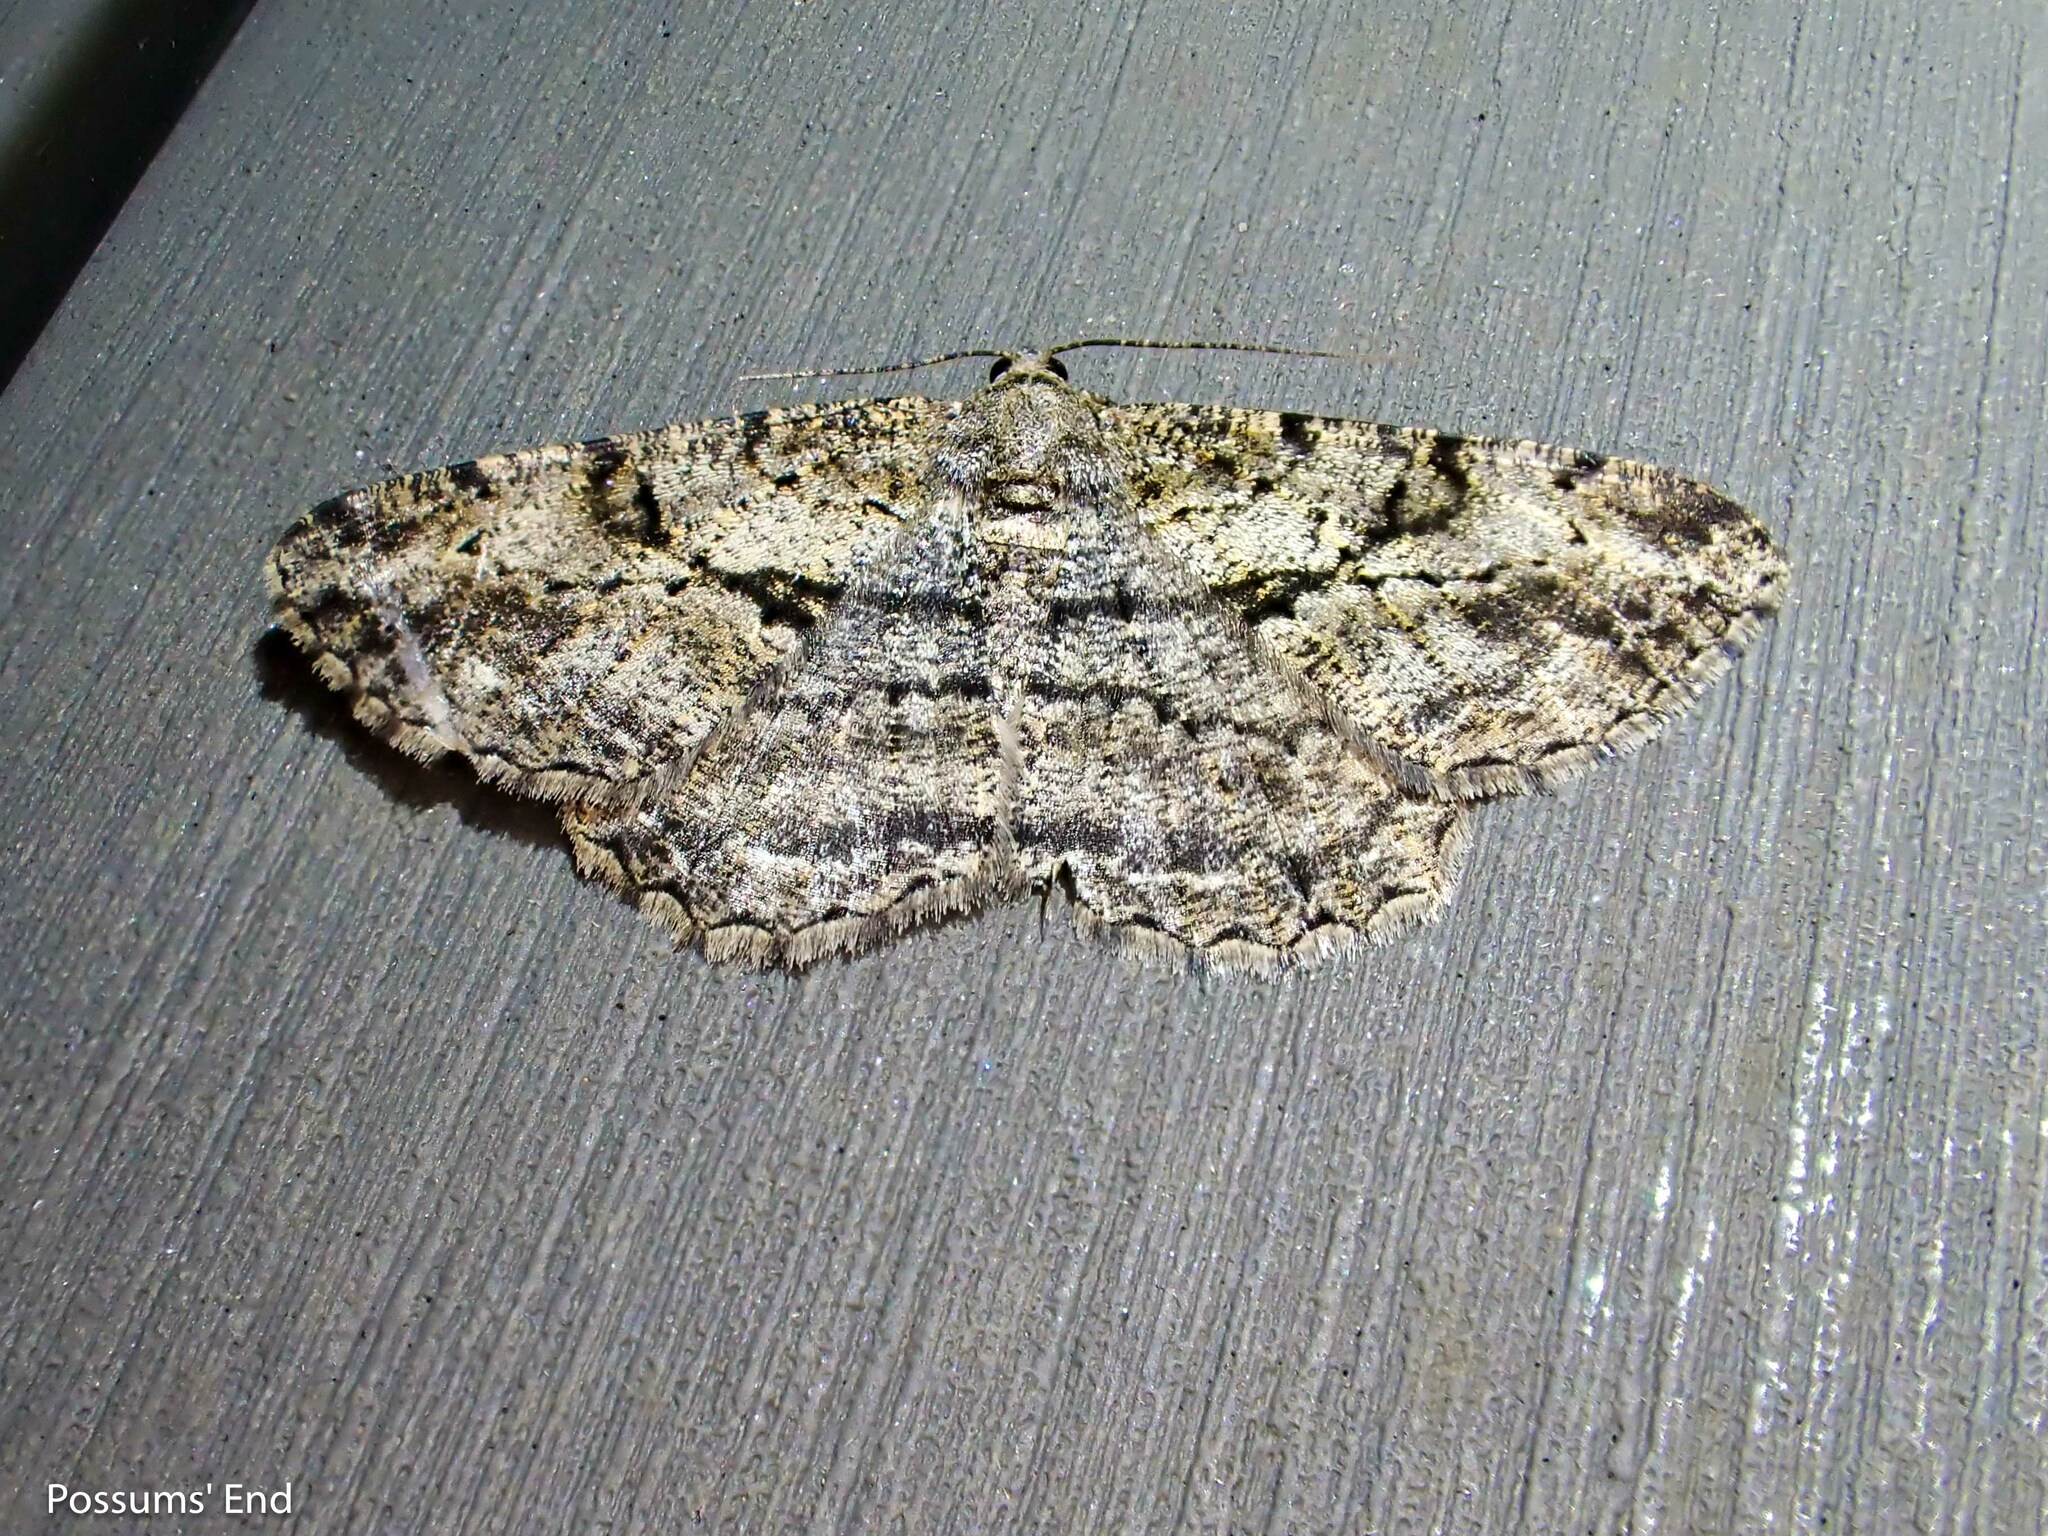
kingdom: Animalia
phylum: Arthropoda
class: Insecta
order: Lepidoptera
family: Geometridae
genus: Peribatodes
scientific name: Peribatodes rhomboidaria
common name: Willow beauty
